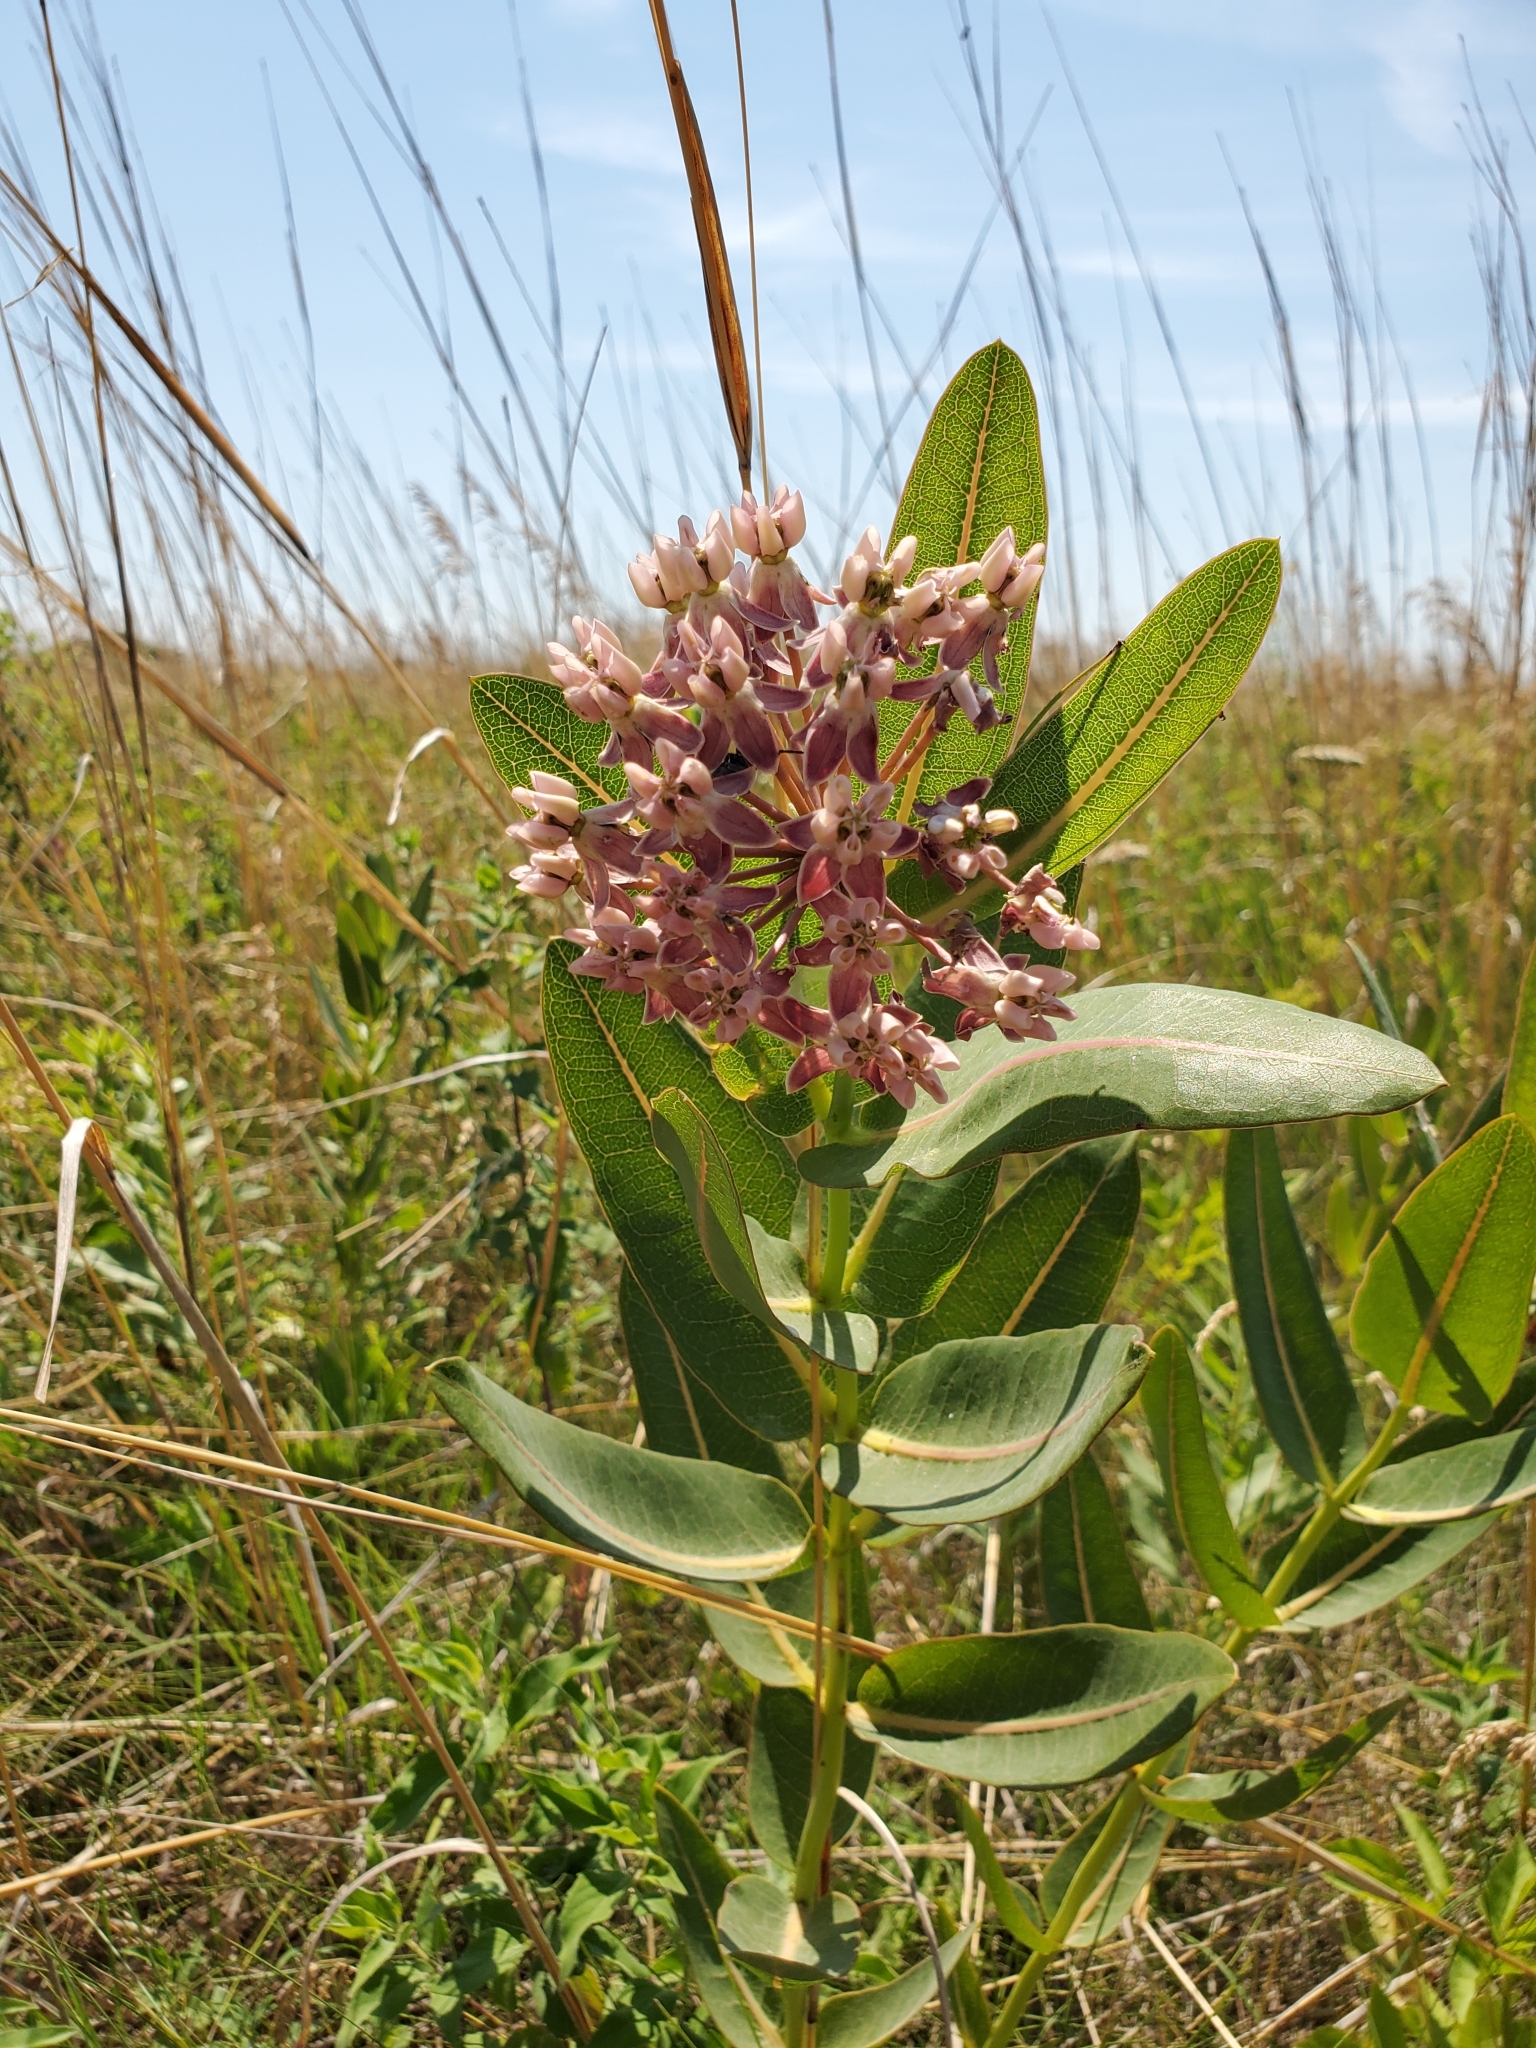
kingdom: Plantae
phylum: Tracheophyta
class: Magnoliopsida
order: Gentianales
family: Apocynaceae
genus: Asclepias
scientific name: Asclepias sullivantii
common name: Prairie milkweed
